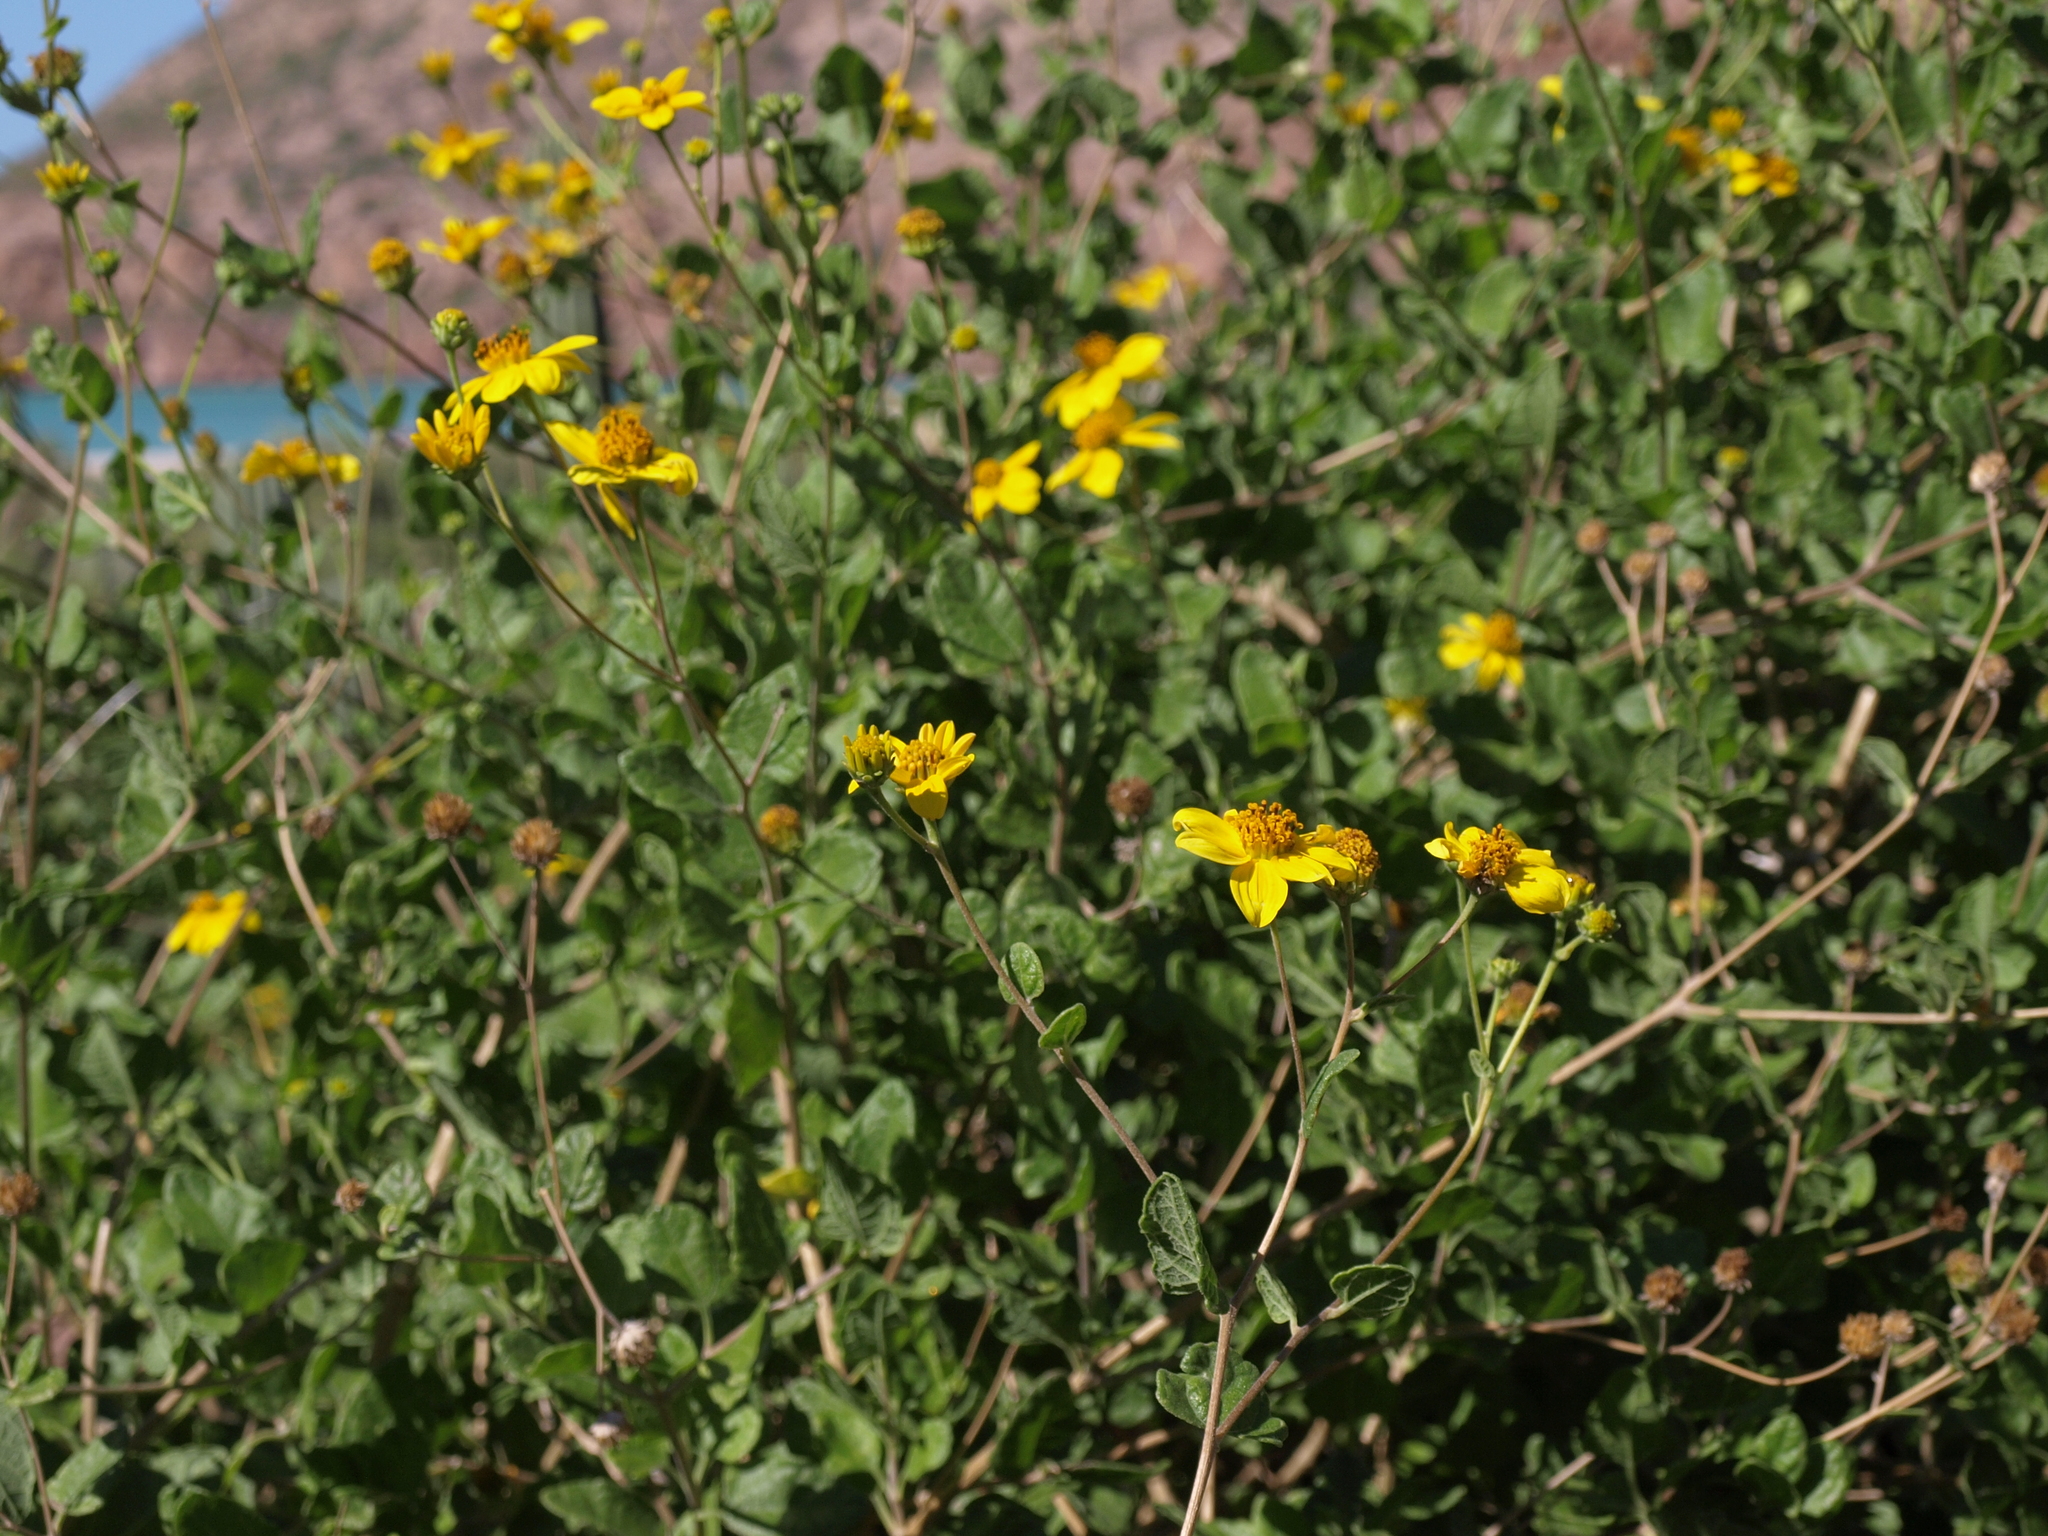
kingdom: Plantae
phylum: Tracheophyta
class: Magnoliopsida
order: Asterales
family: Asteraceae
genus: Bahiopsis
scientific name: Bahiopsis deltoidea
